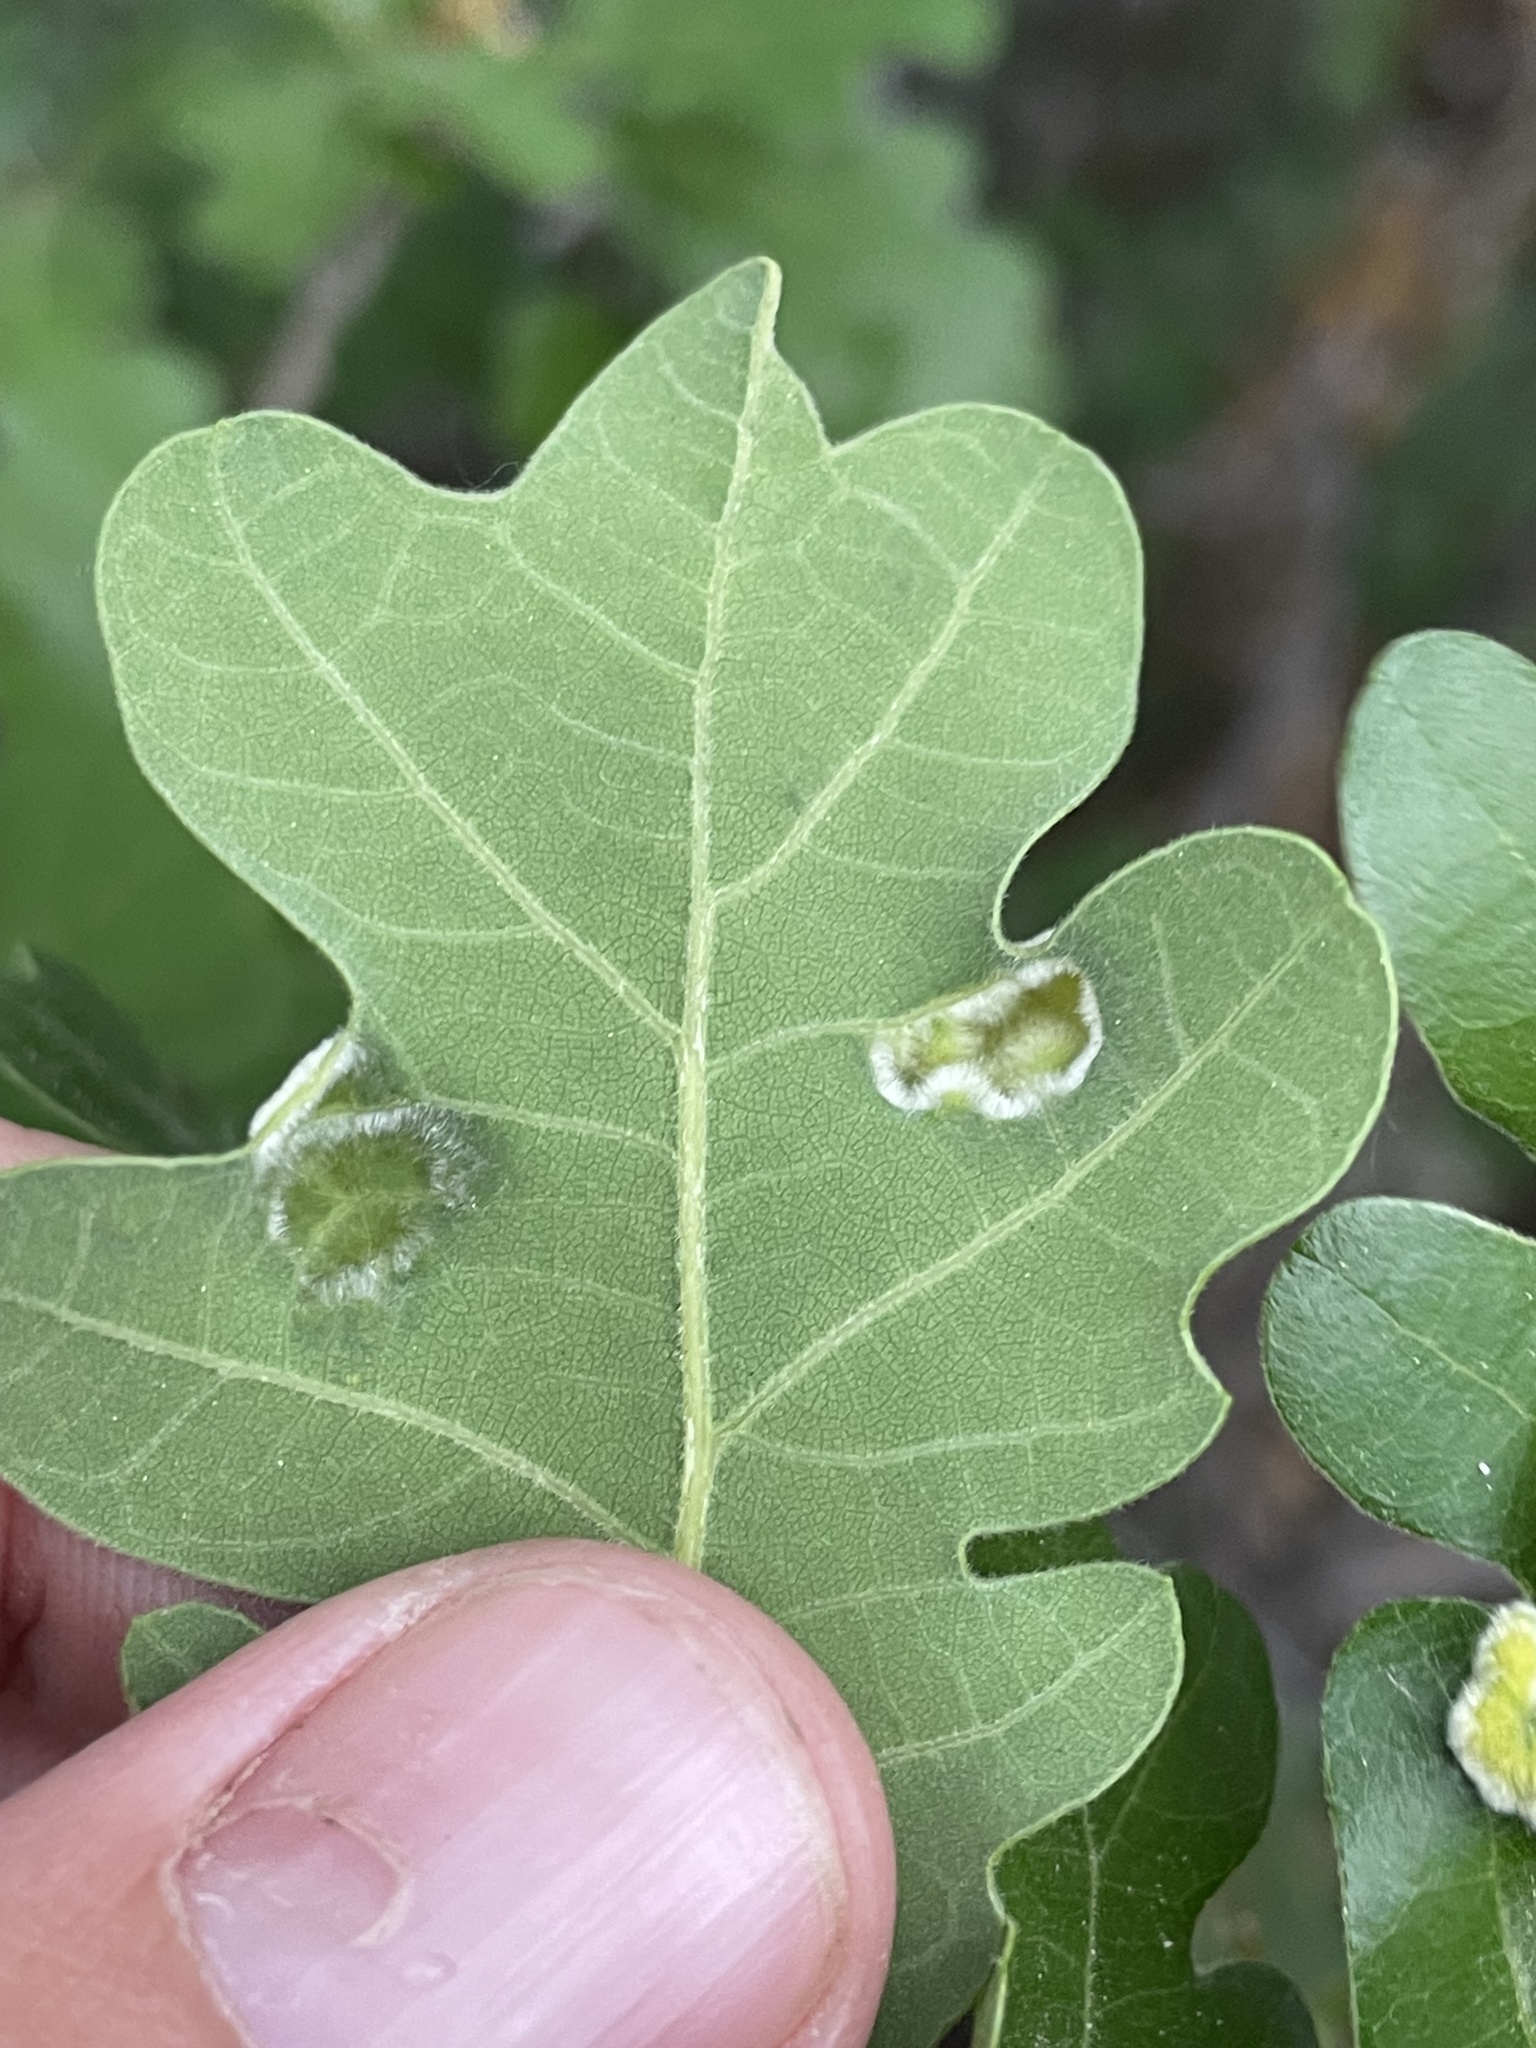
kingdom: Animalia
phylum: Arthropoda
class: Arachnida
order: Trombidiformes
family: Eriophyidae
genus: Aceria
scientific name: Aceria
